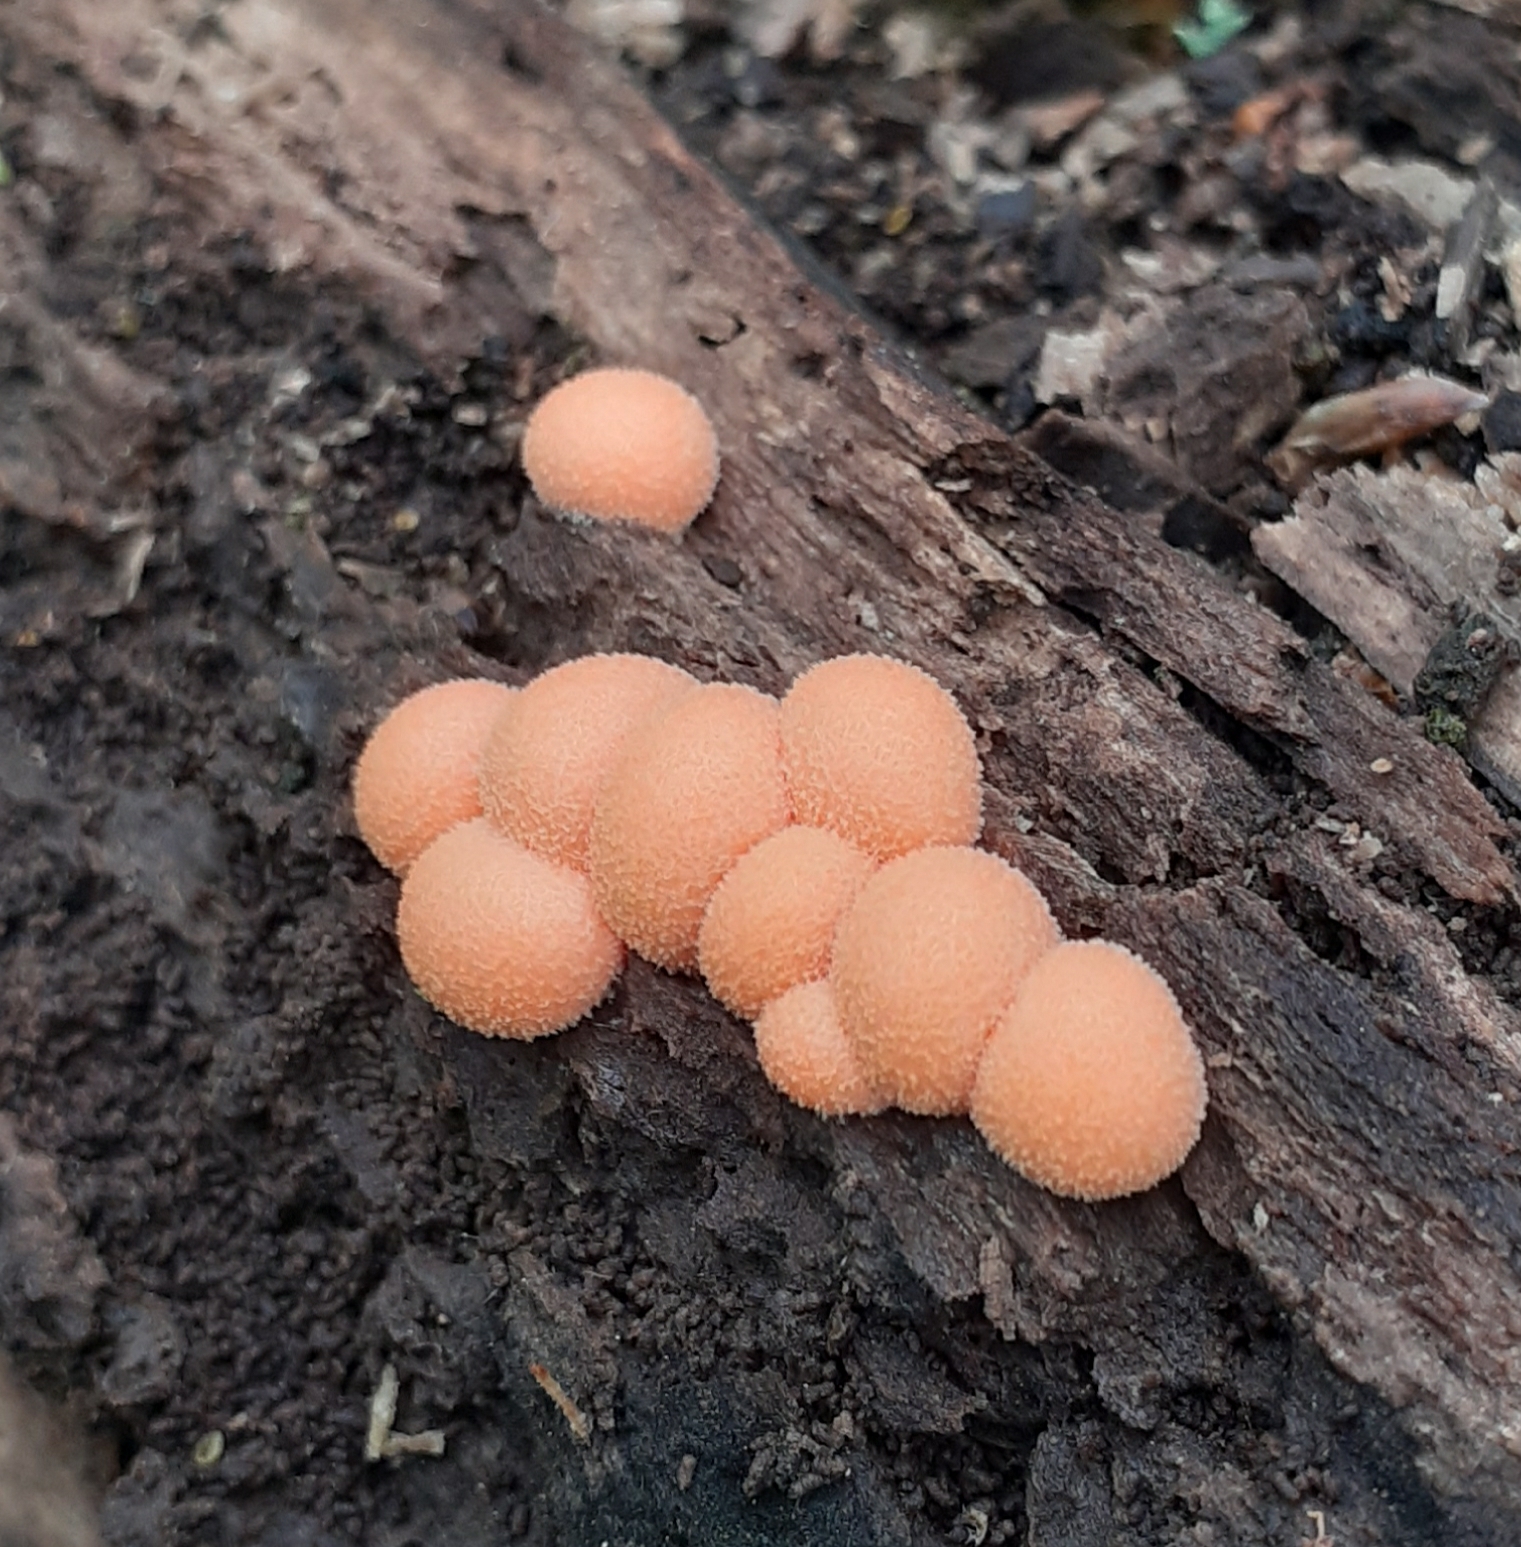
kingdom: Protozoa
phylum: Mycetozoa
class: Myxomycetes
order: Cribrariales
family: Tubiferaceae
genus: Lycogala
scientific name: Lycogala epidendrum
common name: Wolf's milk
